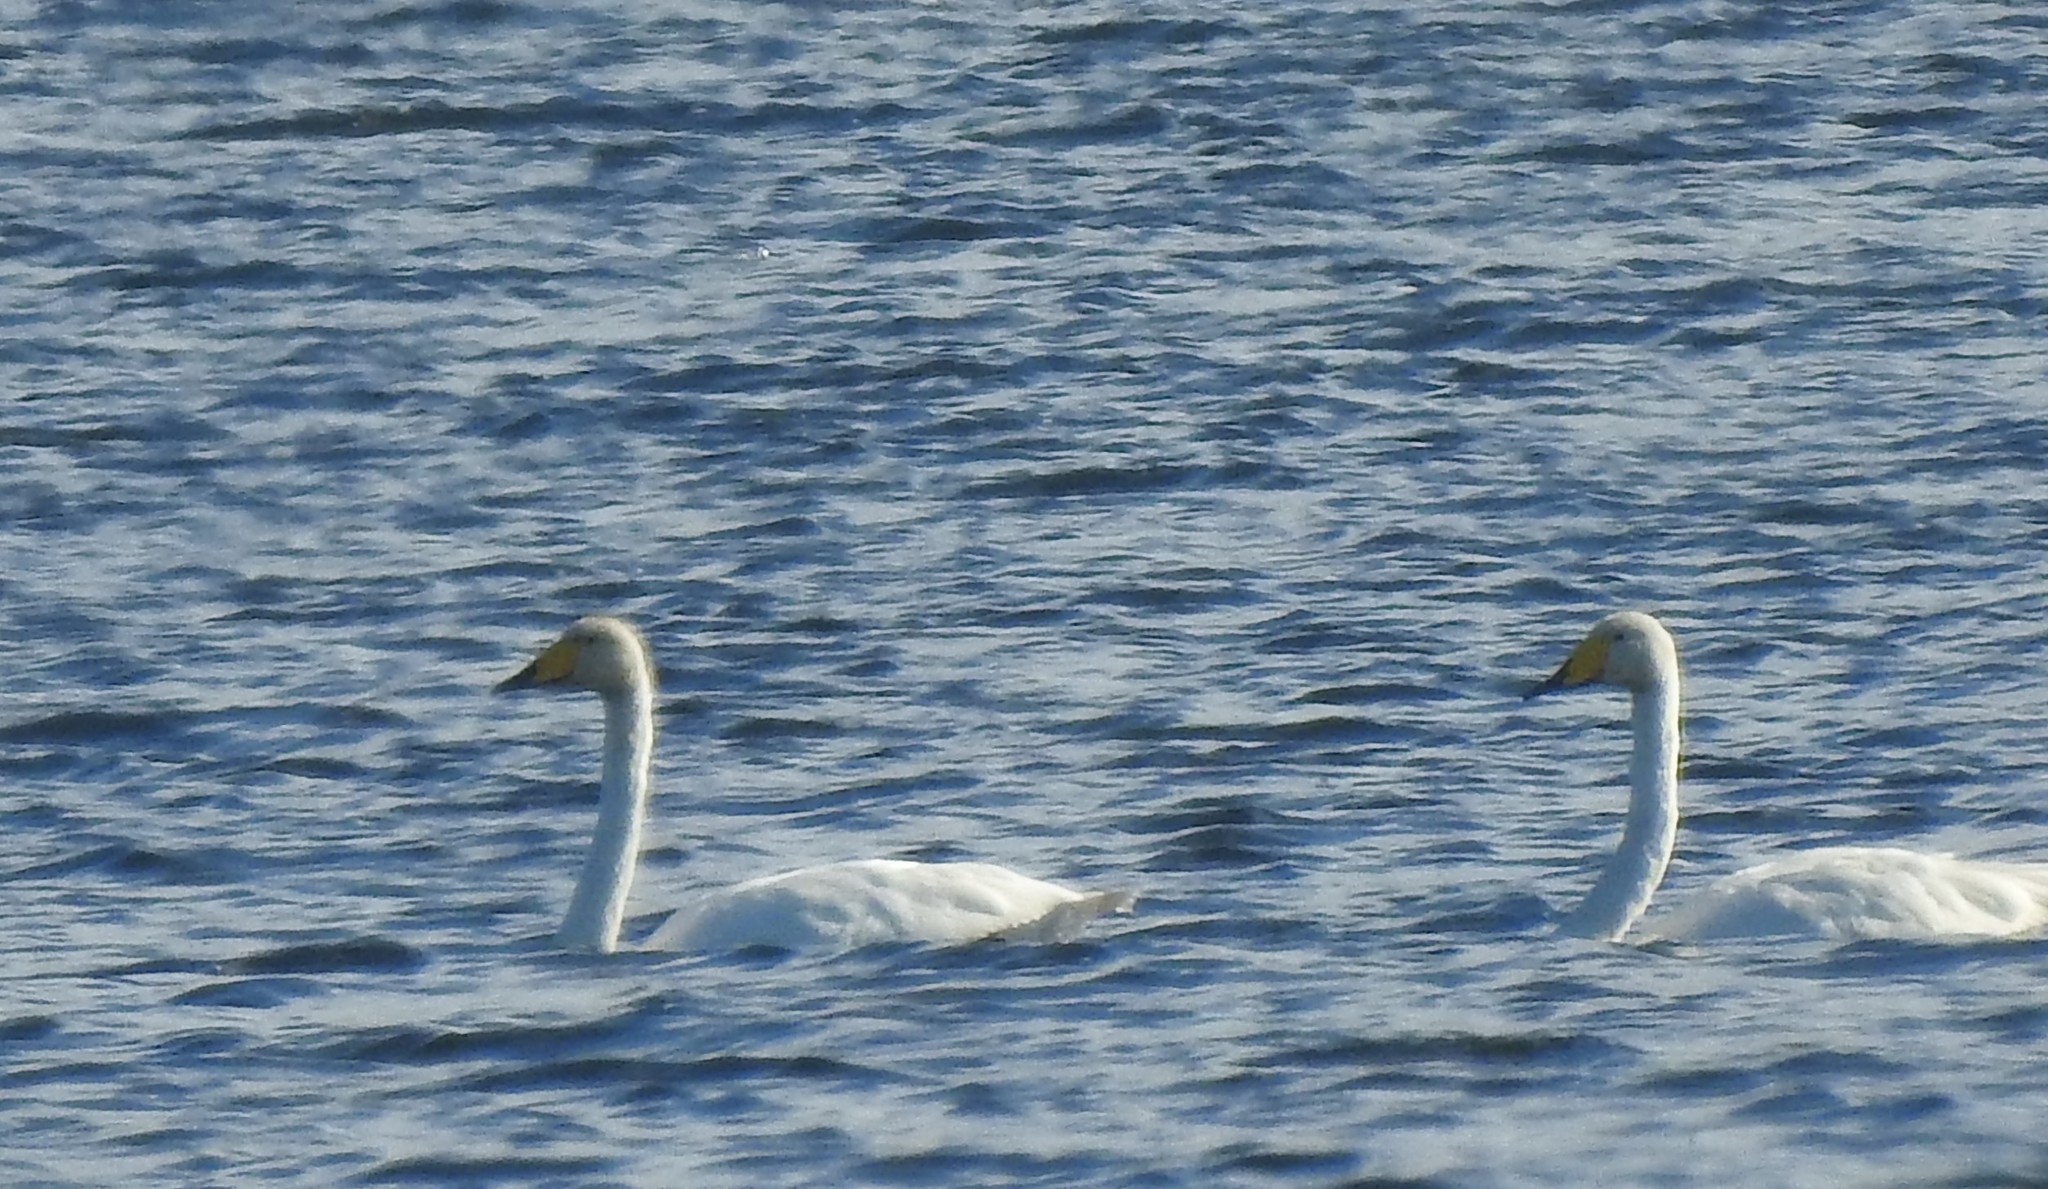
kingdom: Animalia
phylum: Chordata
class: Aves
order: Anseriformes
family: Anatidae
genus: Cygnus
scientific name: Cygnus cygnus
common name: Whooper swan
